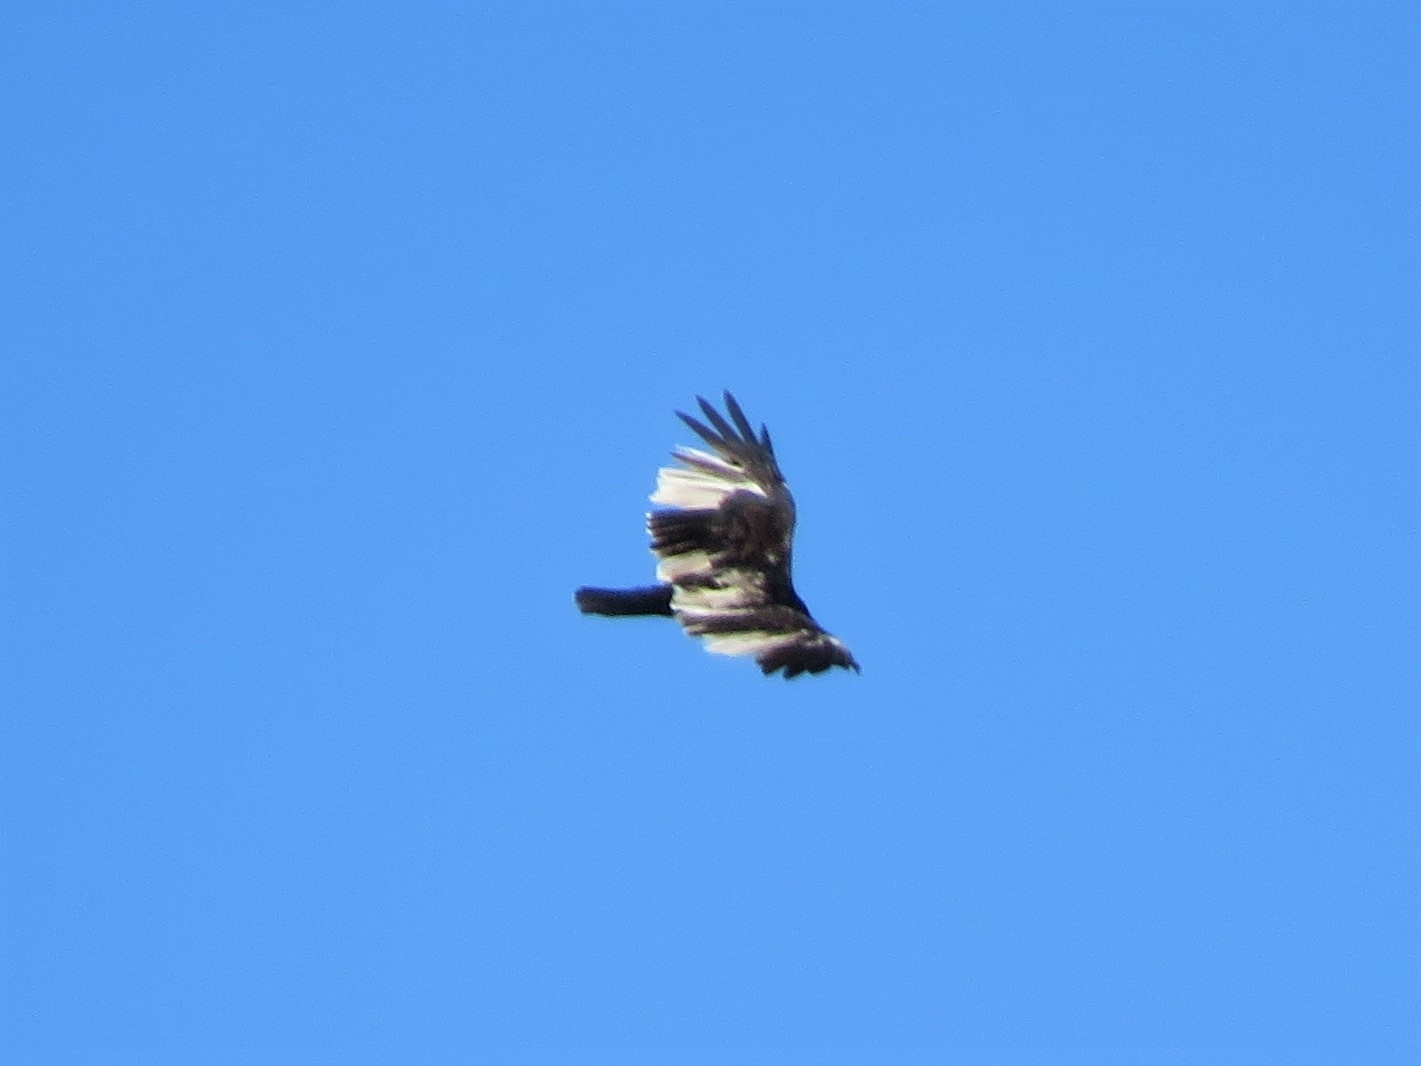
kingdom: Animalia
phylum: Chordata
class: Aves
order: Accipitriformes
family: Cathartidae
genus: Cathartes
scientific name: Cathartes aura
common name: Turkey vulture
